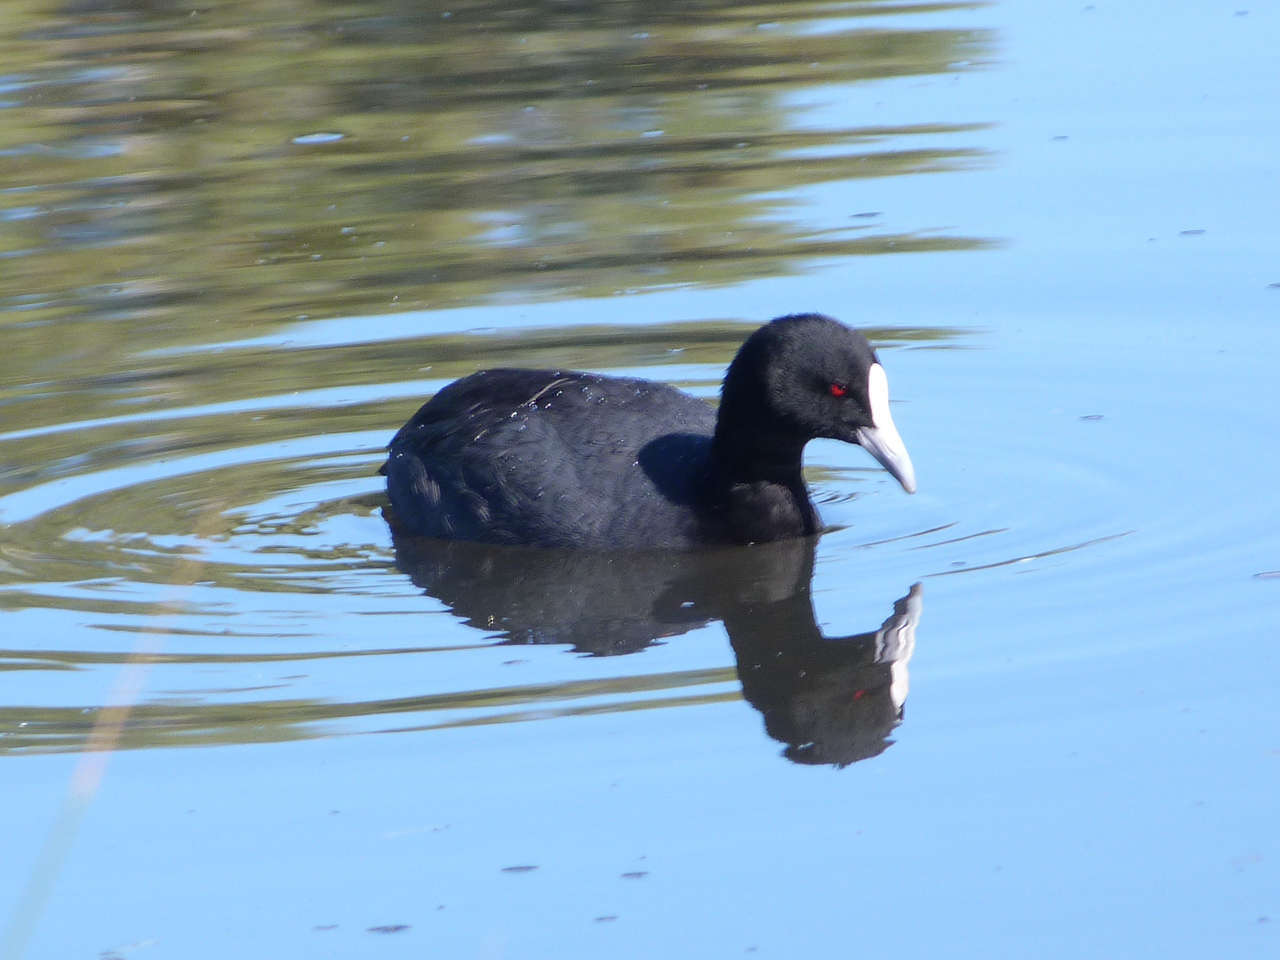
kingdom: Animalia
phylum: Chordata
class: Aves
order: Gruiformes
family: Rallidae
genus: Fulica
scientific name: Fulica atra
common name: Eurasian coot
